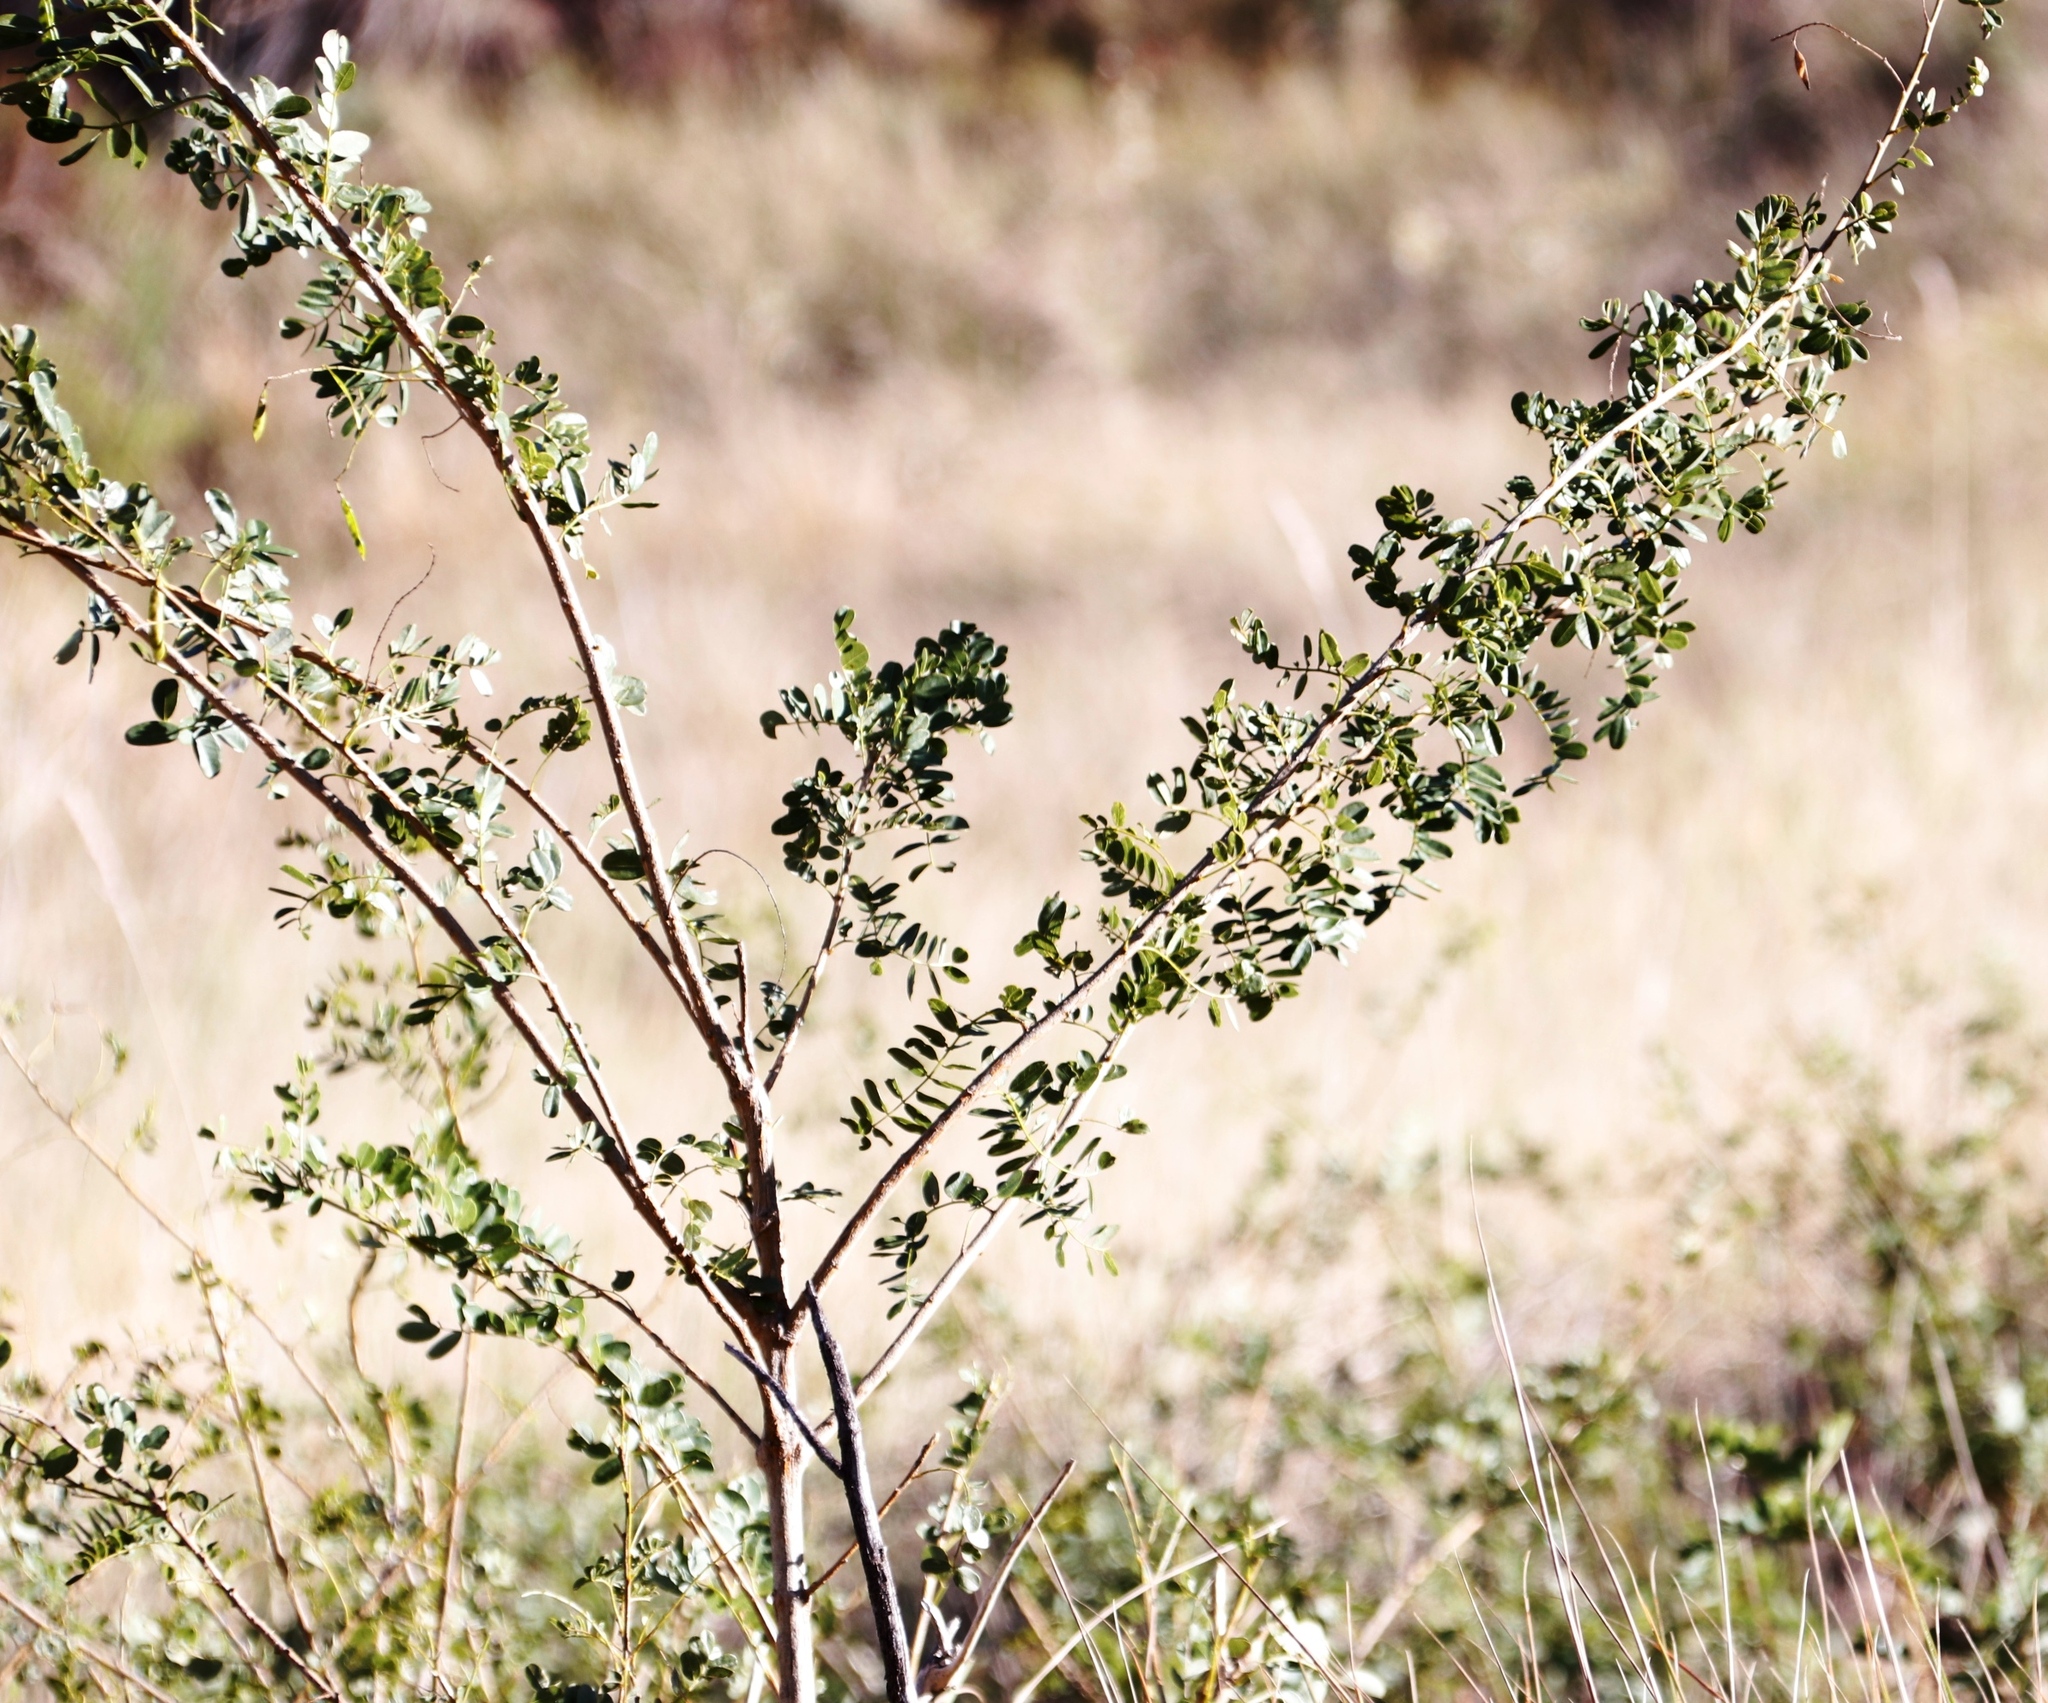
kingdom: Plantae
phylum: Tracheophyta
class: Magnoliopsida
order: Fabales
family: Fabaceae
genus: Calpurnia
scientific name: Calpurnia sericea
